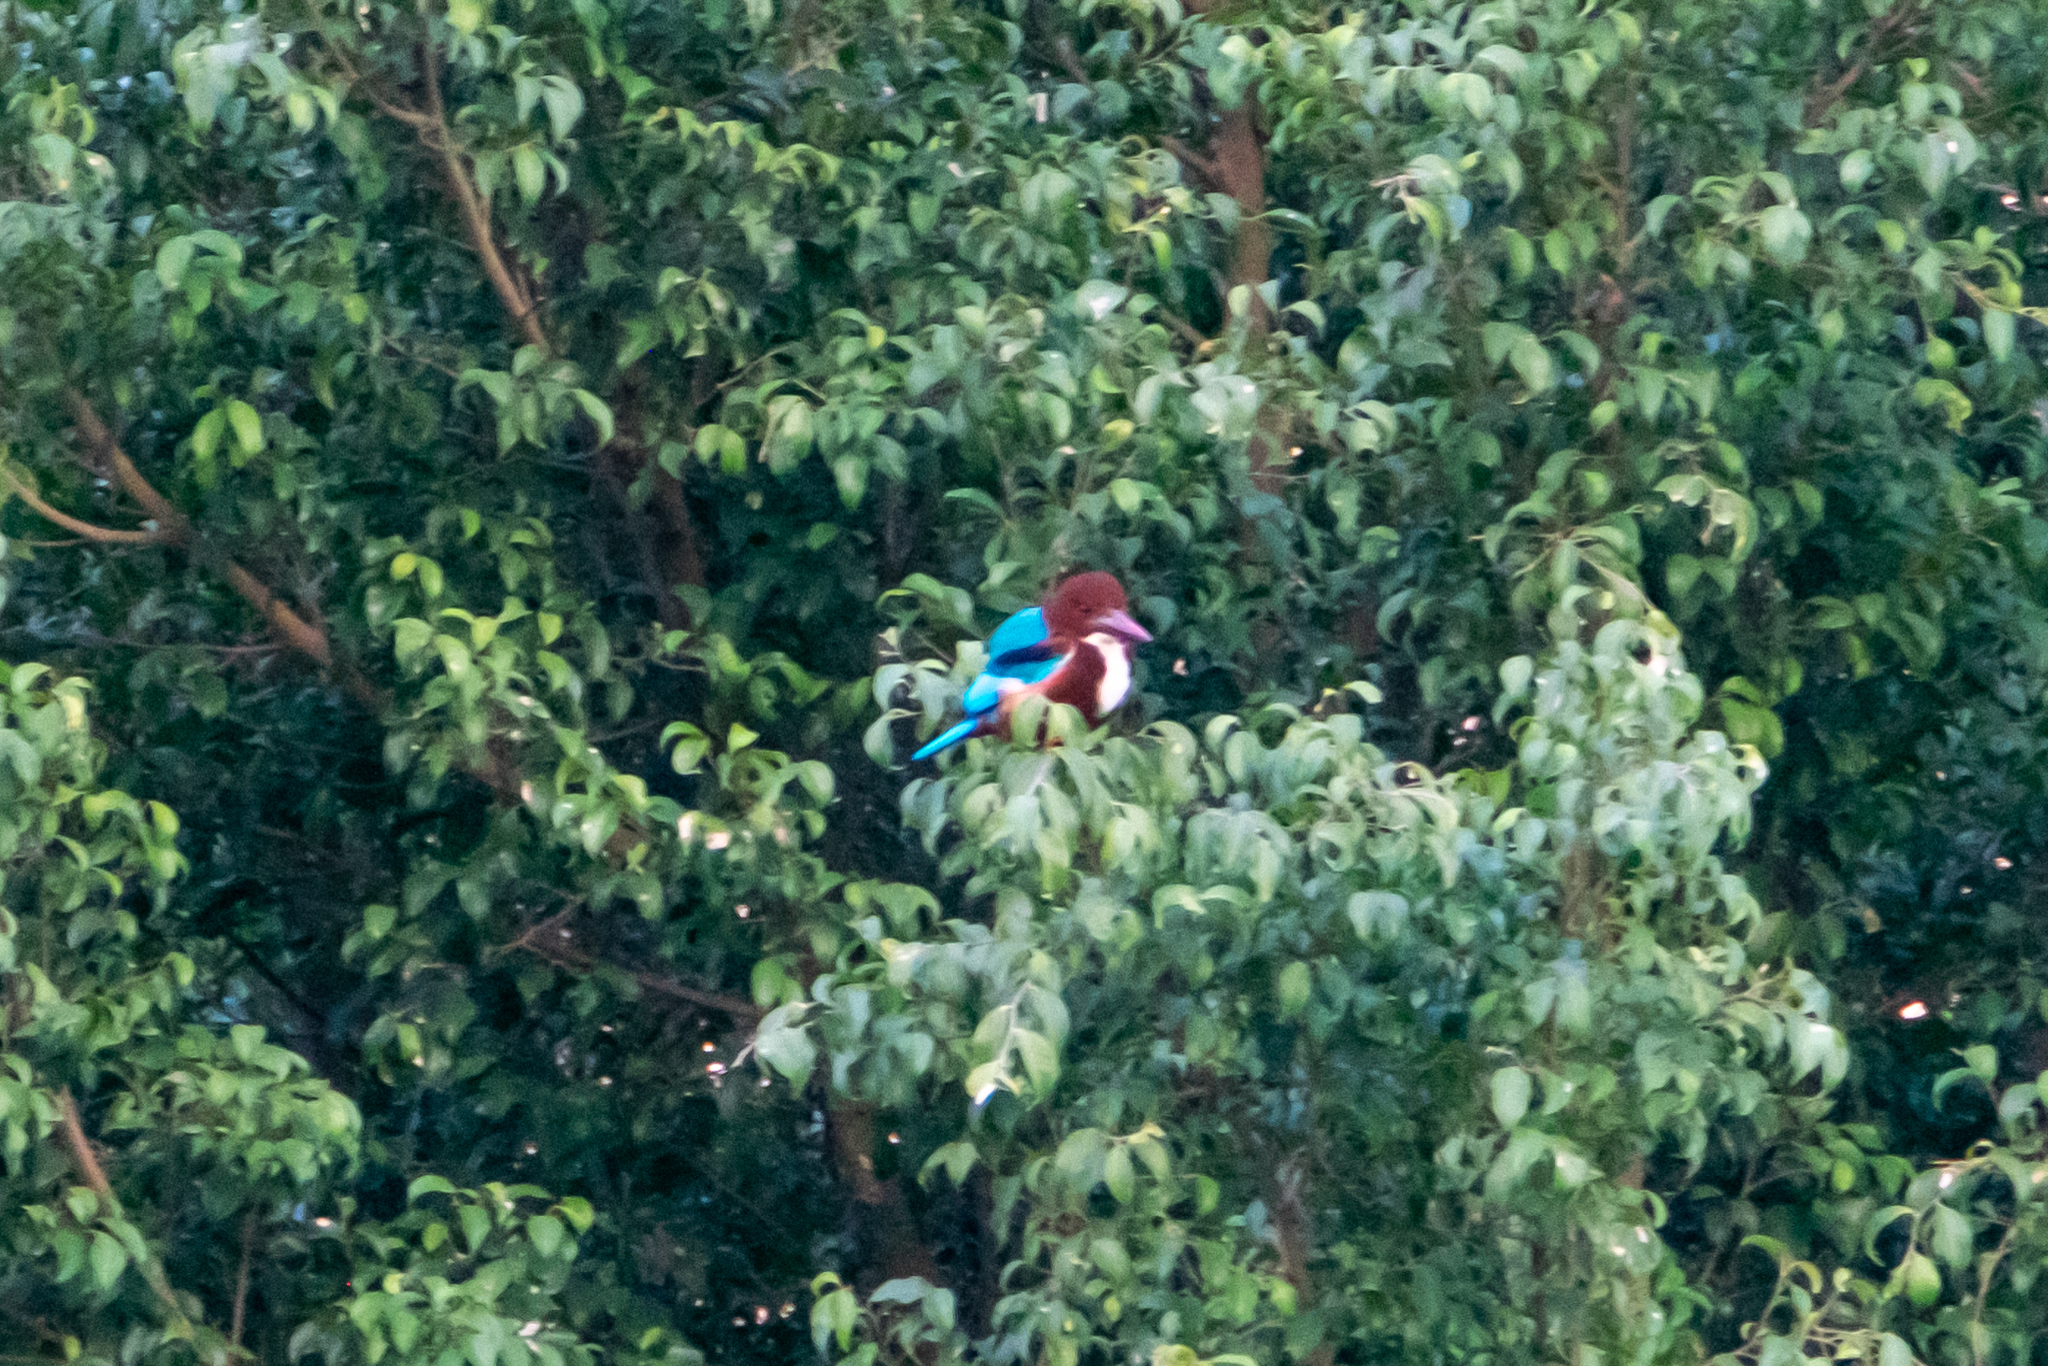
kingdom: Animalia
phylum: Chordata
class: Aves
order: Coraciiformes
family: Alcedinidae
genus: Halcyon
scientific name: Halcyon smyrnensis
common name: White-throated kingfisher
